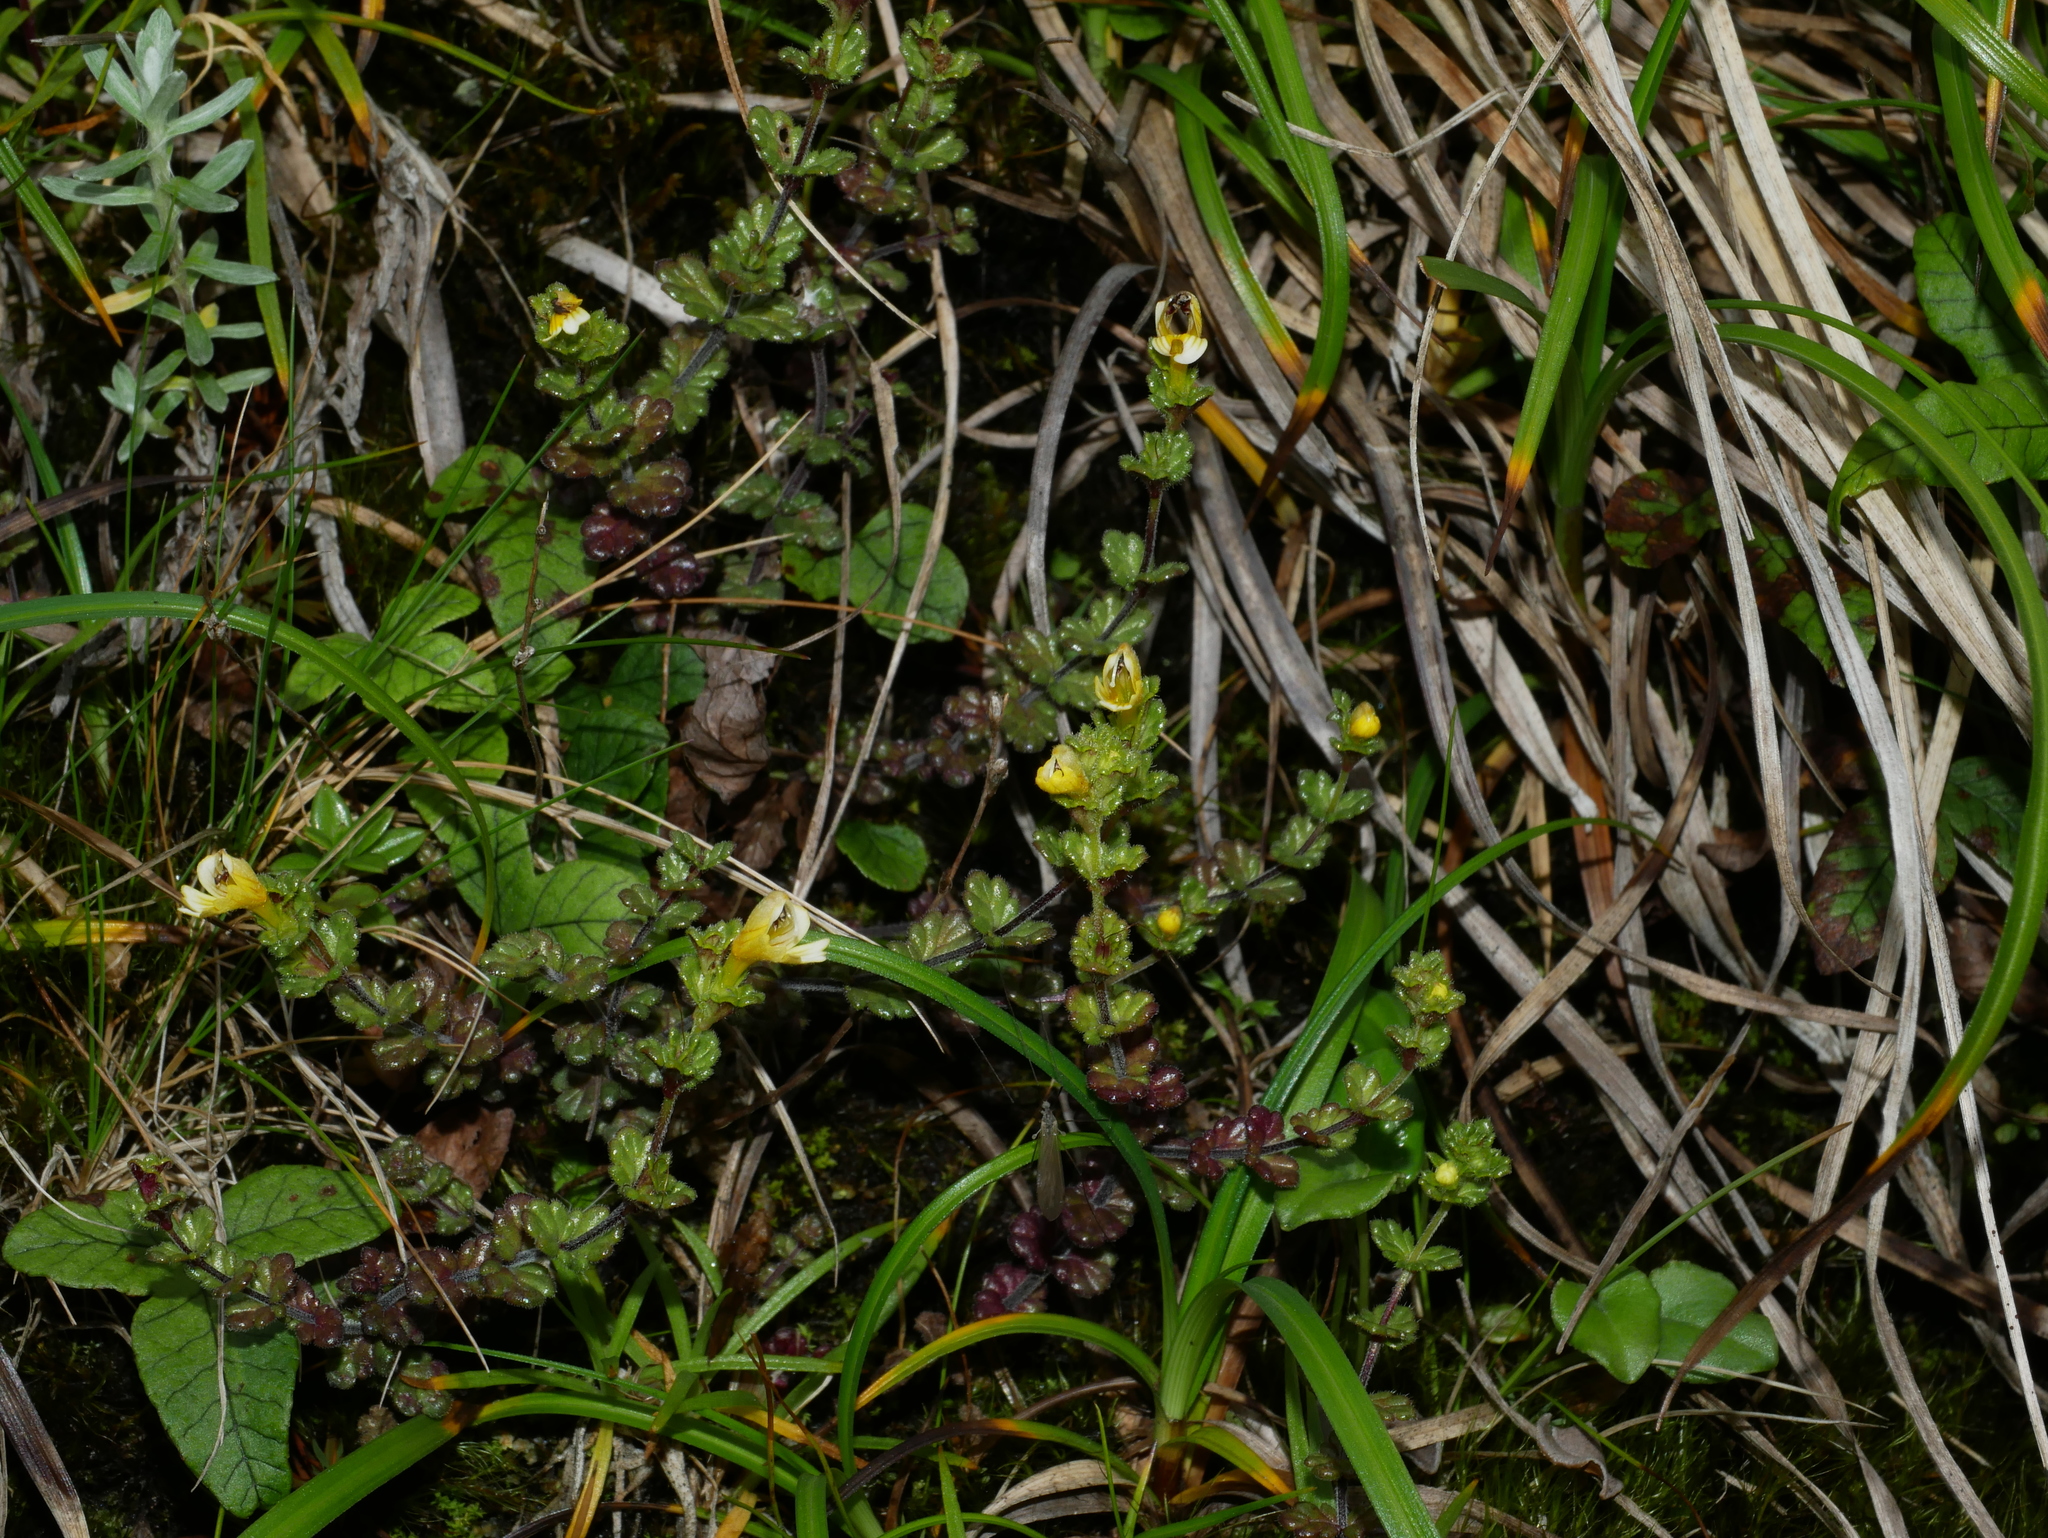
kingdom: Plantae
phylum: Tracheophyta
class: Magnoliopsida
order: Lamiales
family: Orobanchaceae
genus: Euphrasia
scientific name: Euphrasia transmorrisonensis
